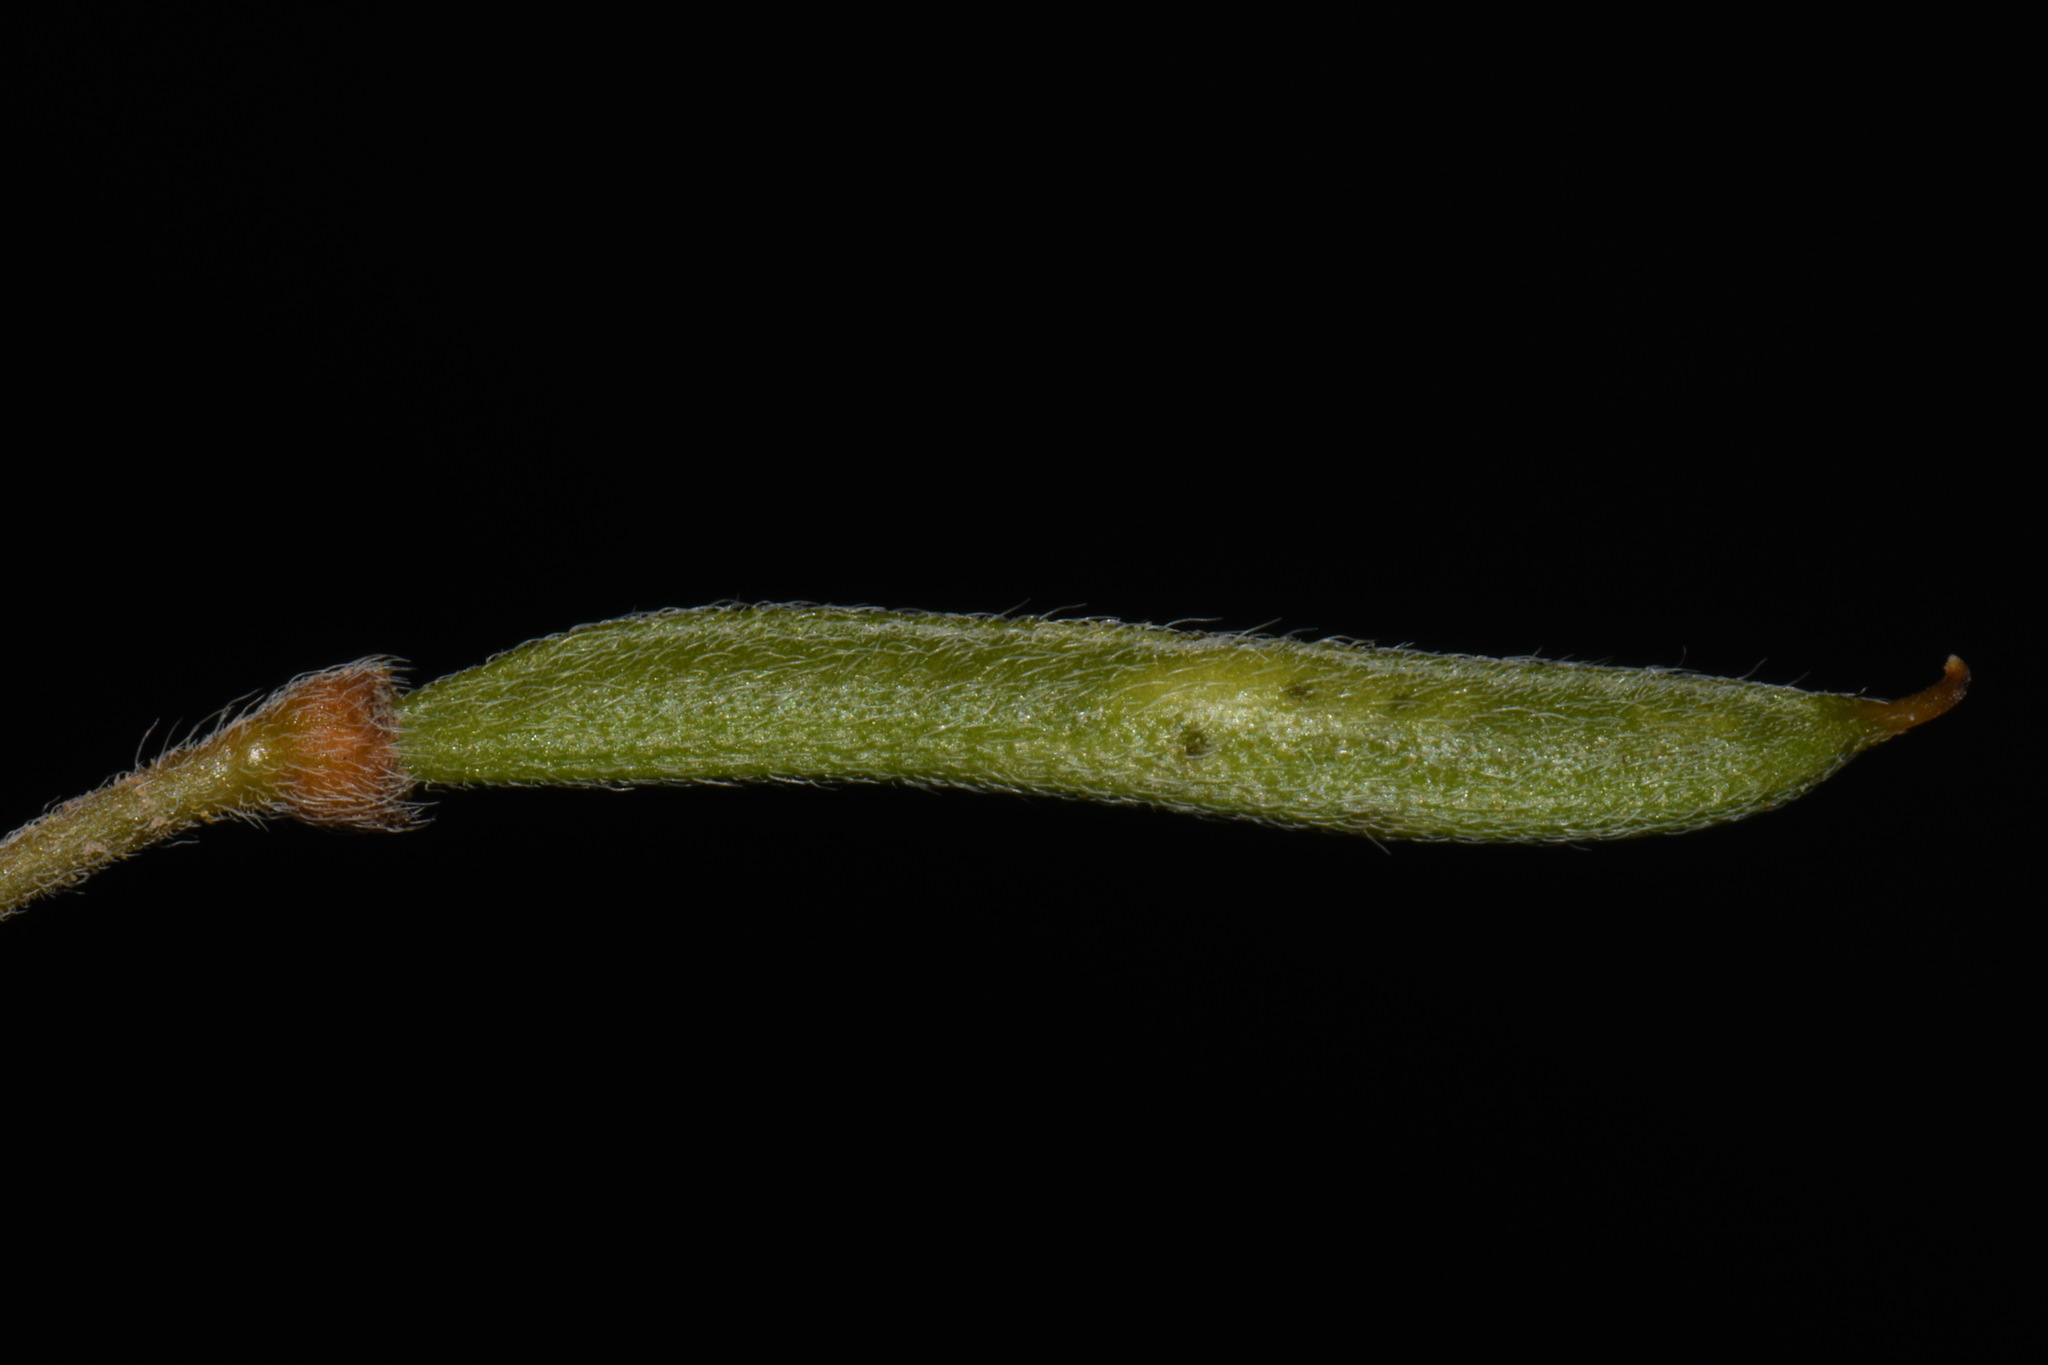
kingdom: Plantae
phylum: Tracheophyta
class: Magnoliopsida
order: Fabales
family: Fabaceae
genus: Senna
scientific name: Senna bauhinioides
